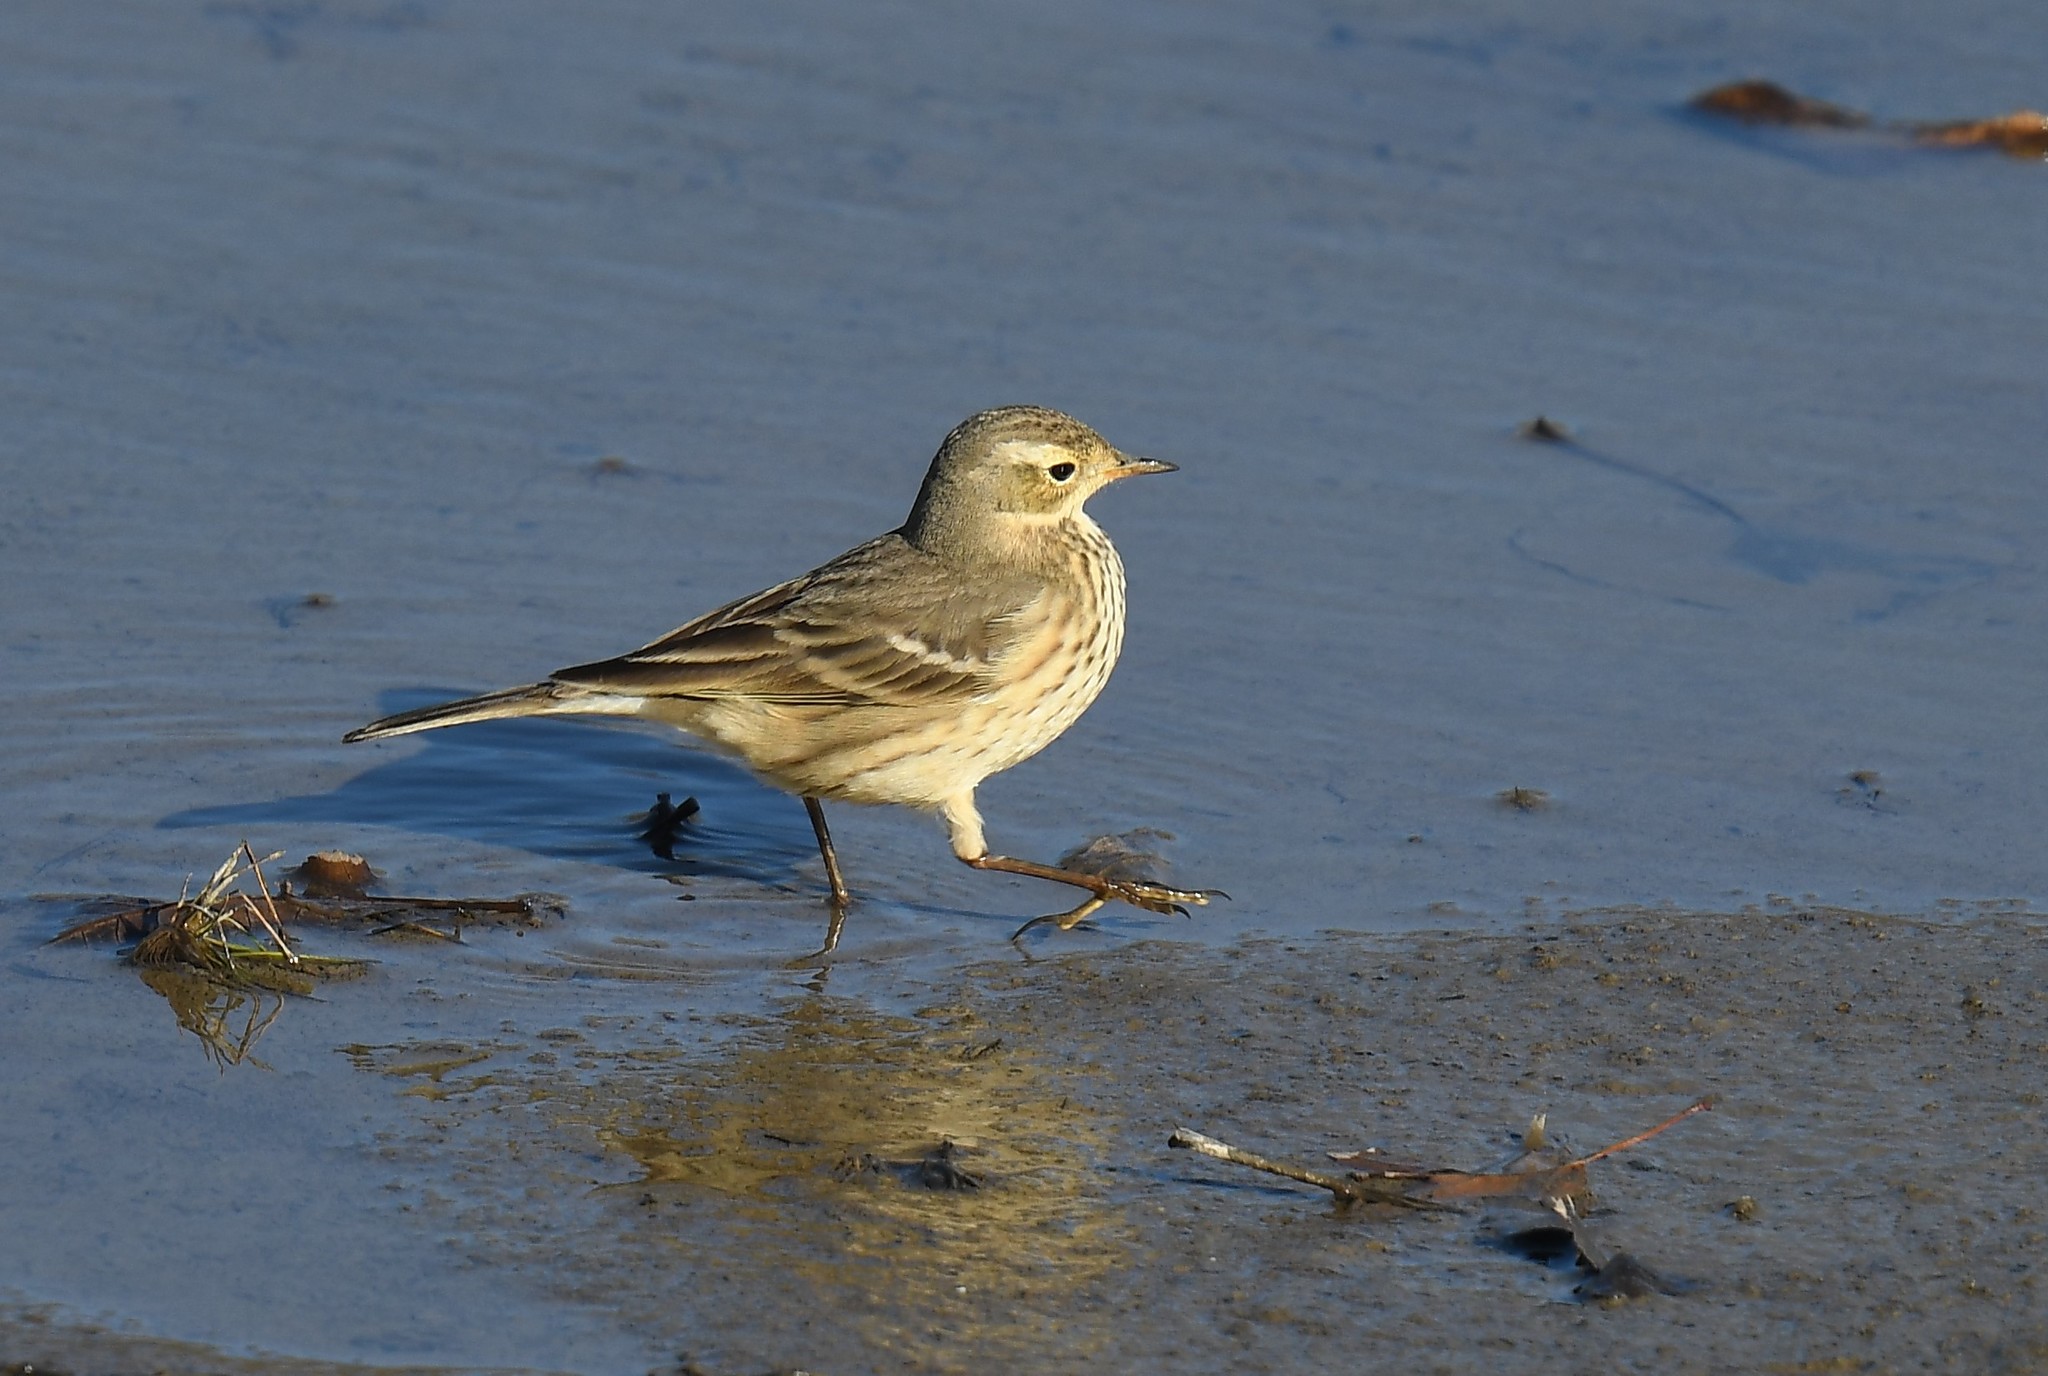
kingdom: Animalia
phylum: Chordata
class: Aves
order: Passeriformes
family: Motacillidae
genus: Anthus
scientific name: Anthus rubescens
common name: Buff-bellied pipit
